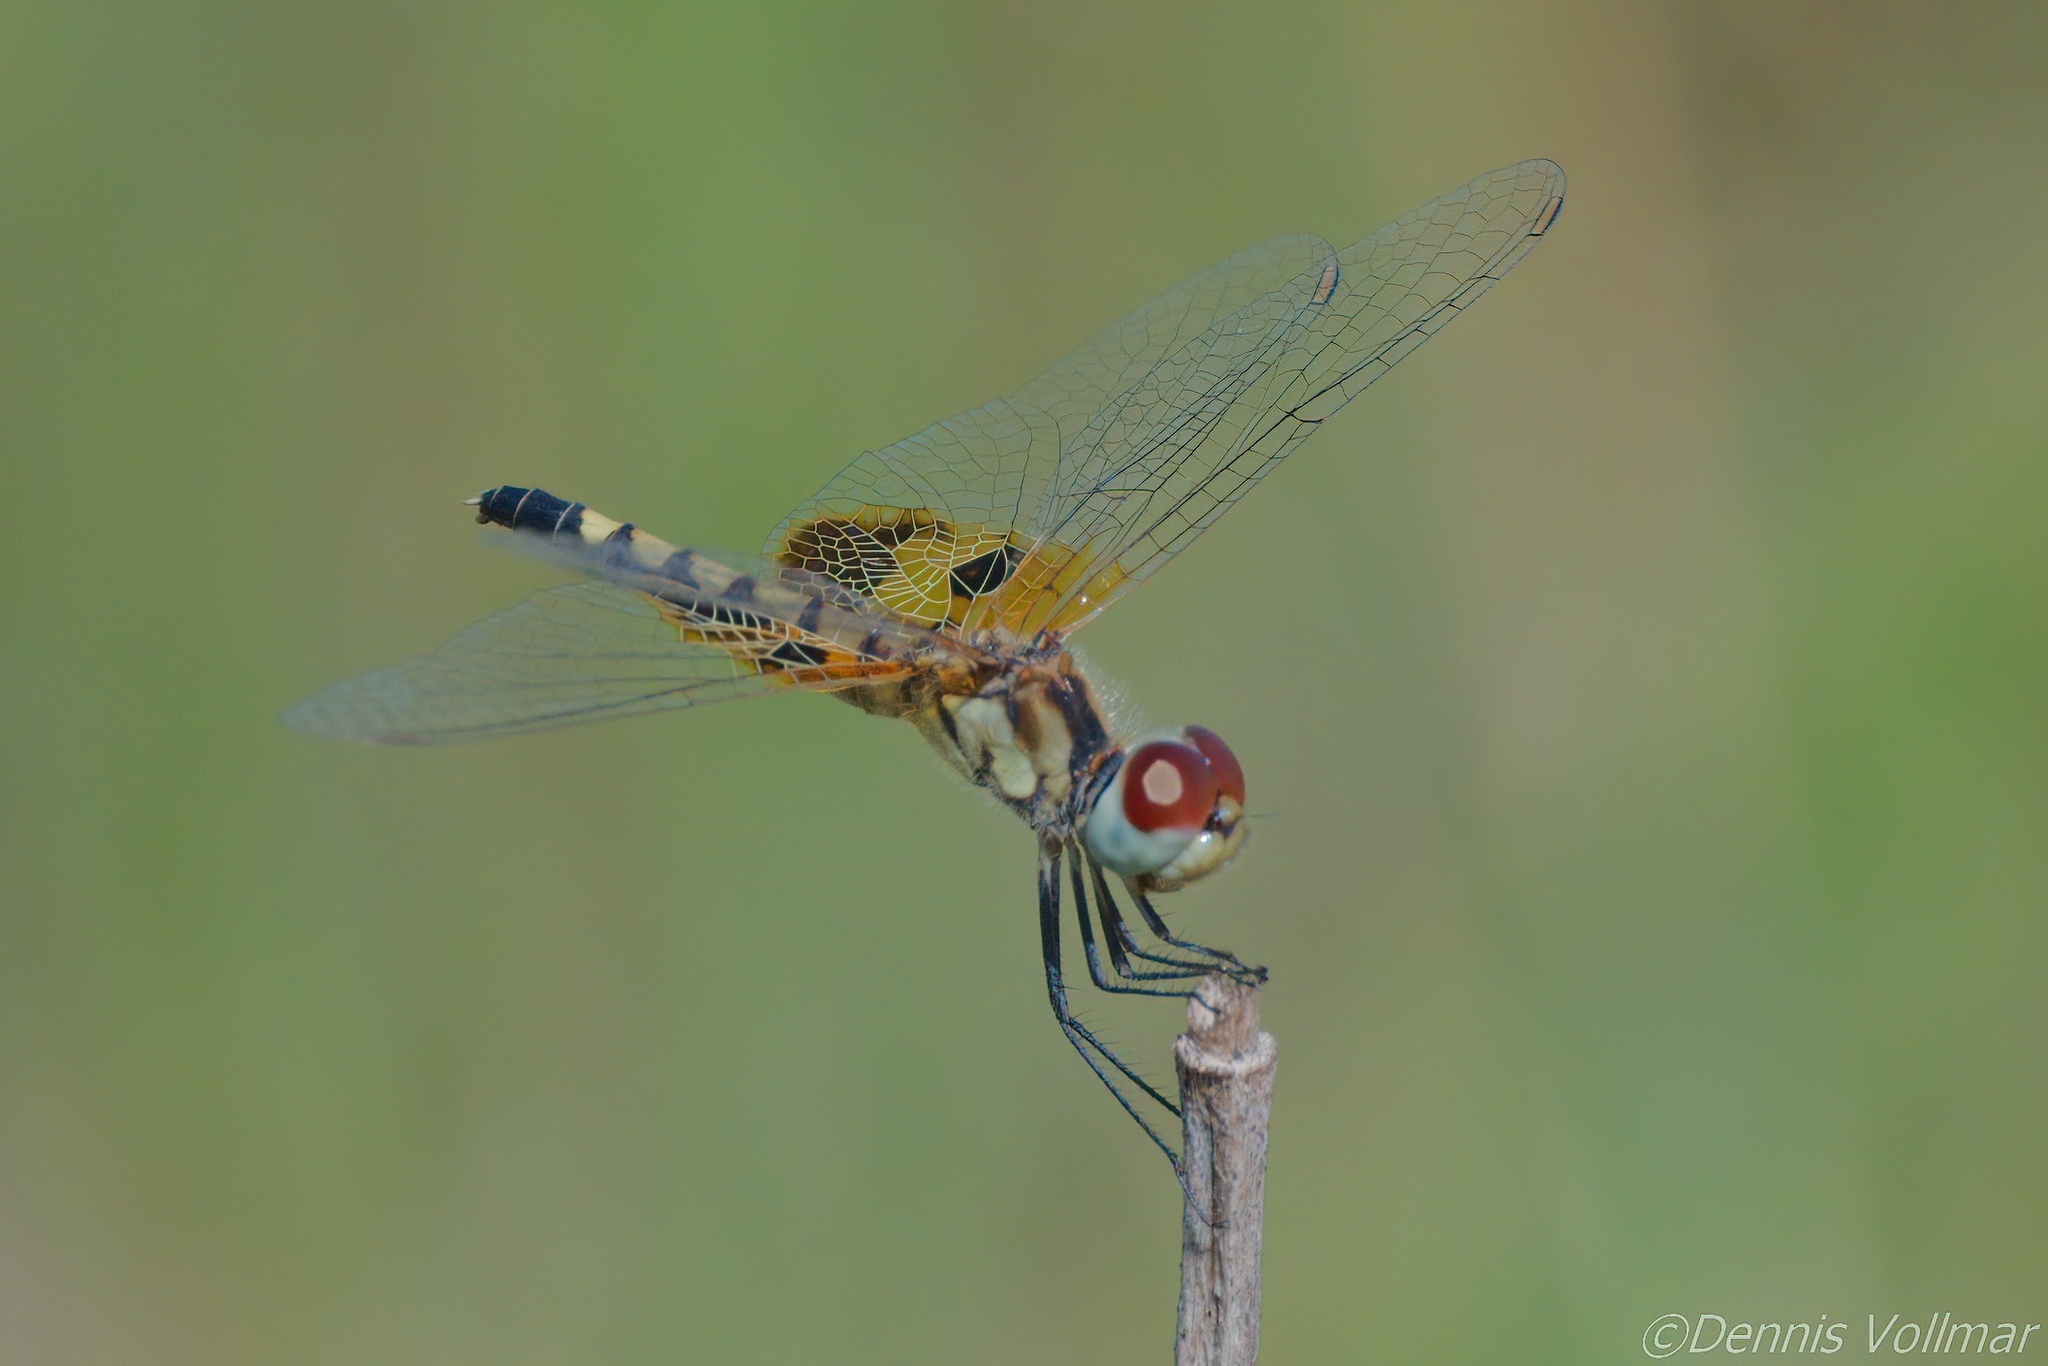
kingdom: Animalia
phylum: Arthropoda
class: Insecta
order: Odonata
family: Libellulidae
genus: Celithemis
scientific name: Celithemis amanda
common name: Amanda's pennant
